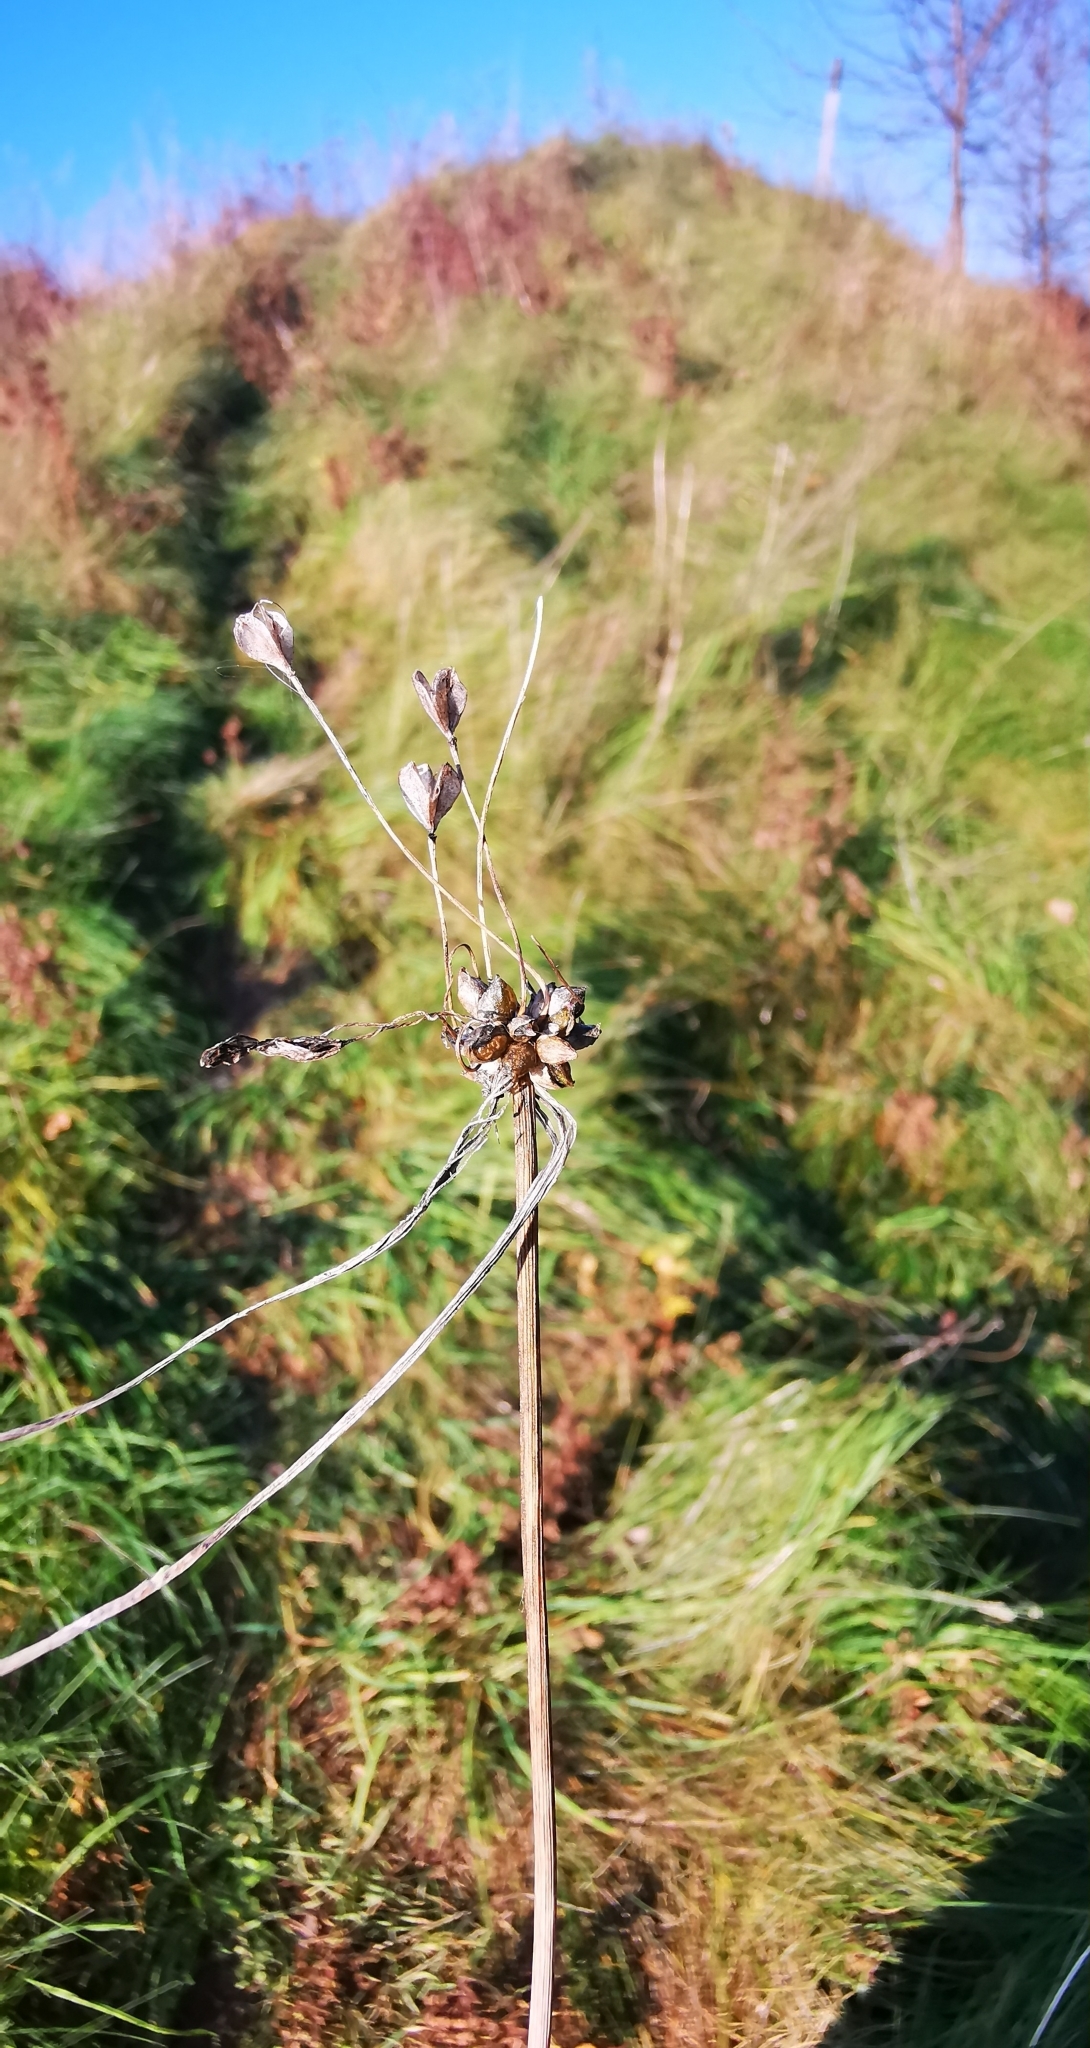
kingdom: Plantae
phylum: Tracheophyta
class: Liliopsida
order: Asparagales
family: Amaryllidaceae
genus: Allium
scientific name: Allium oleraceum
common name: Field garlic
